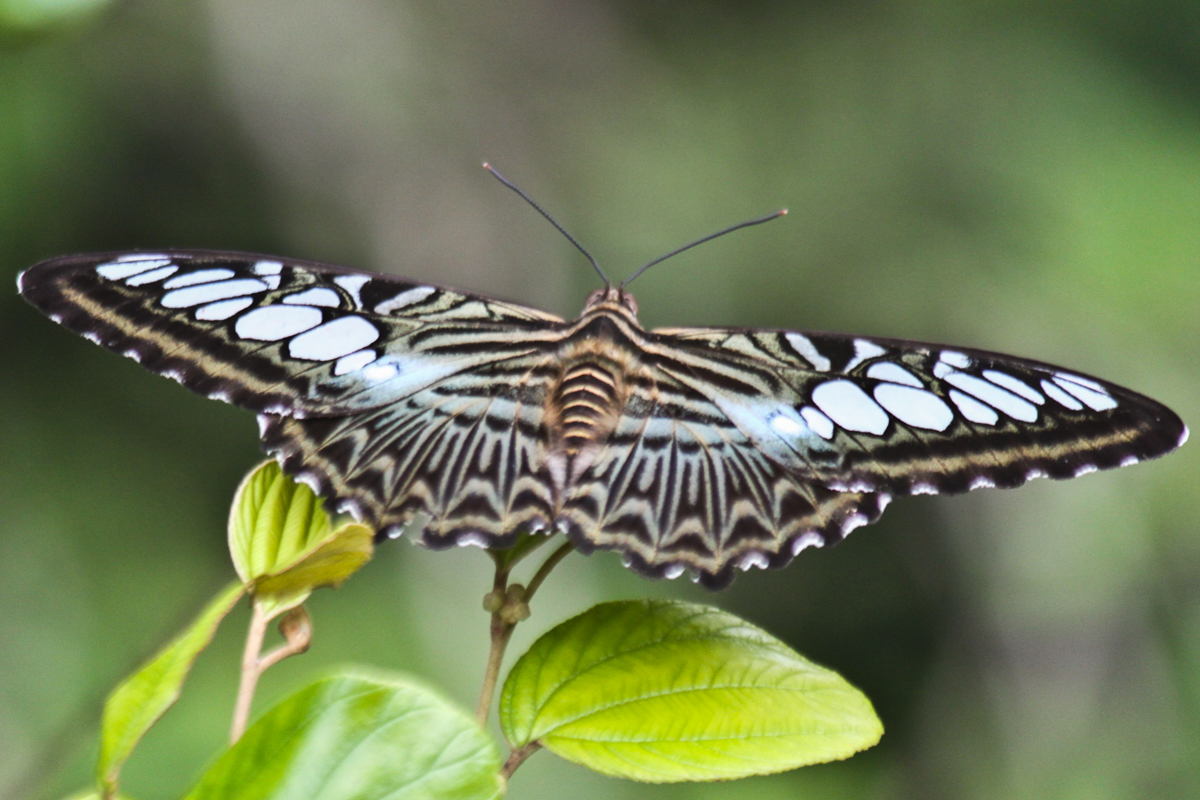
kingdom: Animalia
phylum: Arthropoda
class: Insecta
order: Lepidoptera
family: Nymphalidae
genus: Kallima
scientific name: Kallima sylvia
